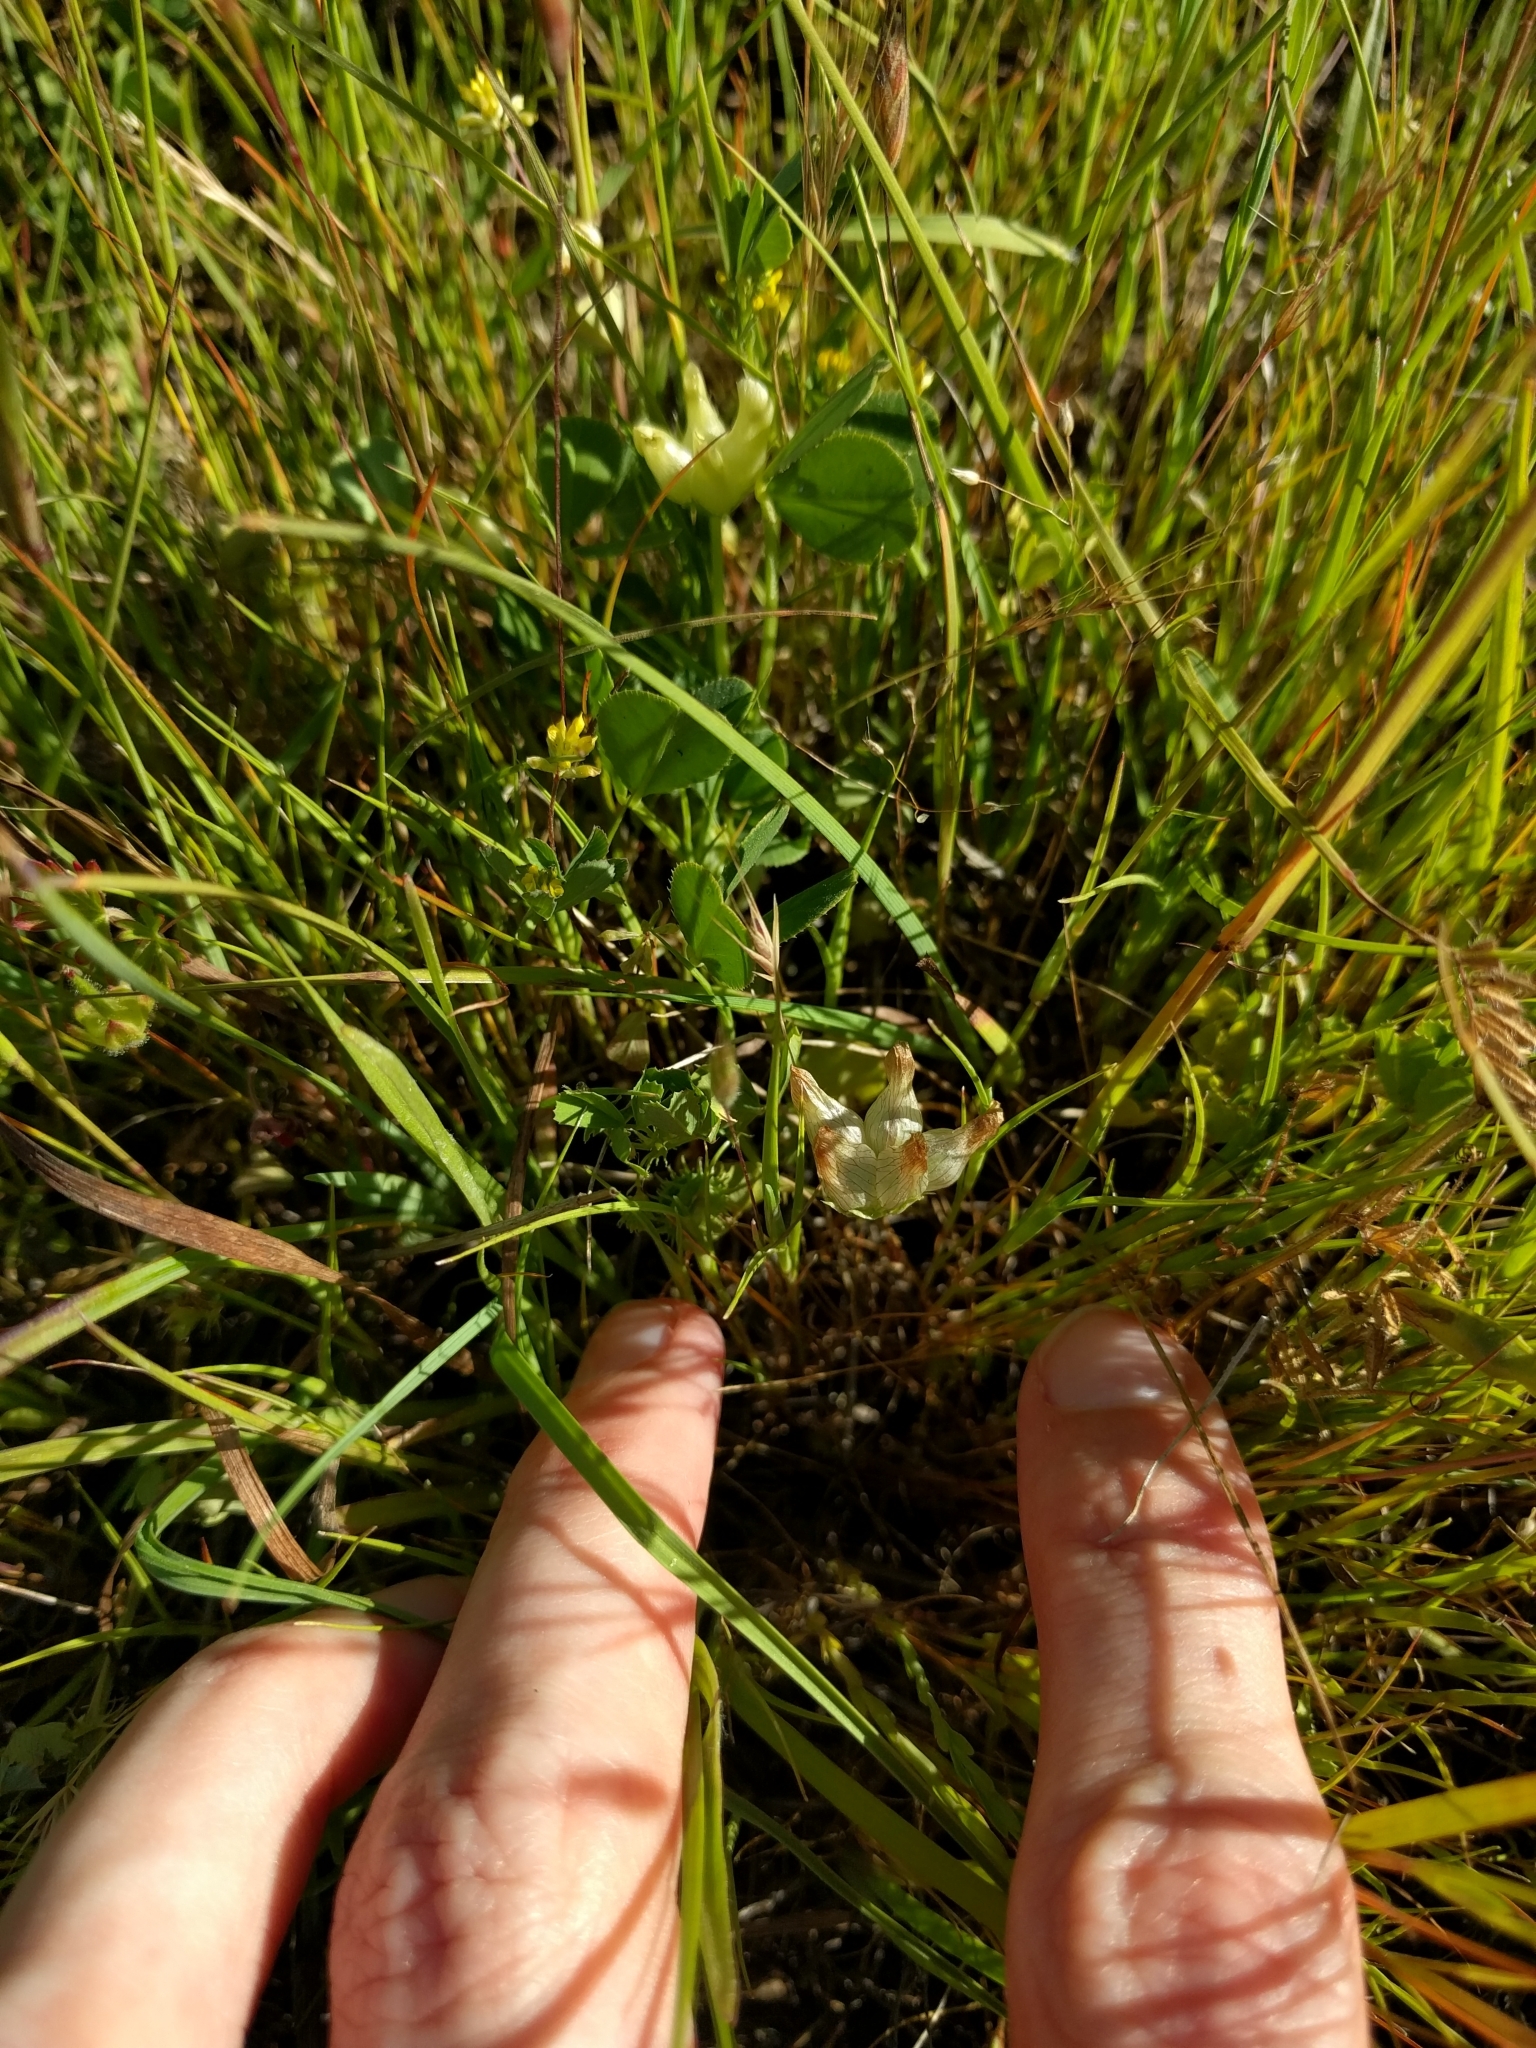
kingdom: Plantae
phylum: Tracheophyta
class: Magnoliopsida
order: Fabales
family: Fabaceae
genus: Trifolium
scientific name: Trifolium fucatum
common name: Puff clover
